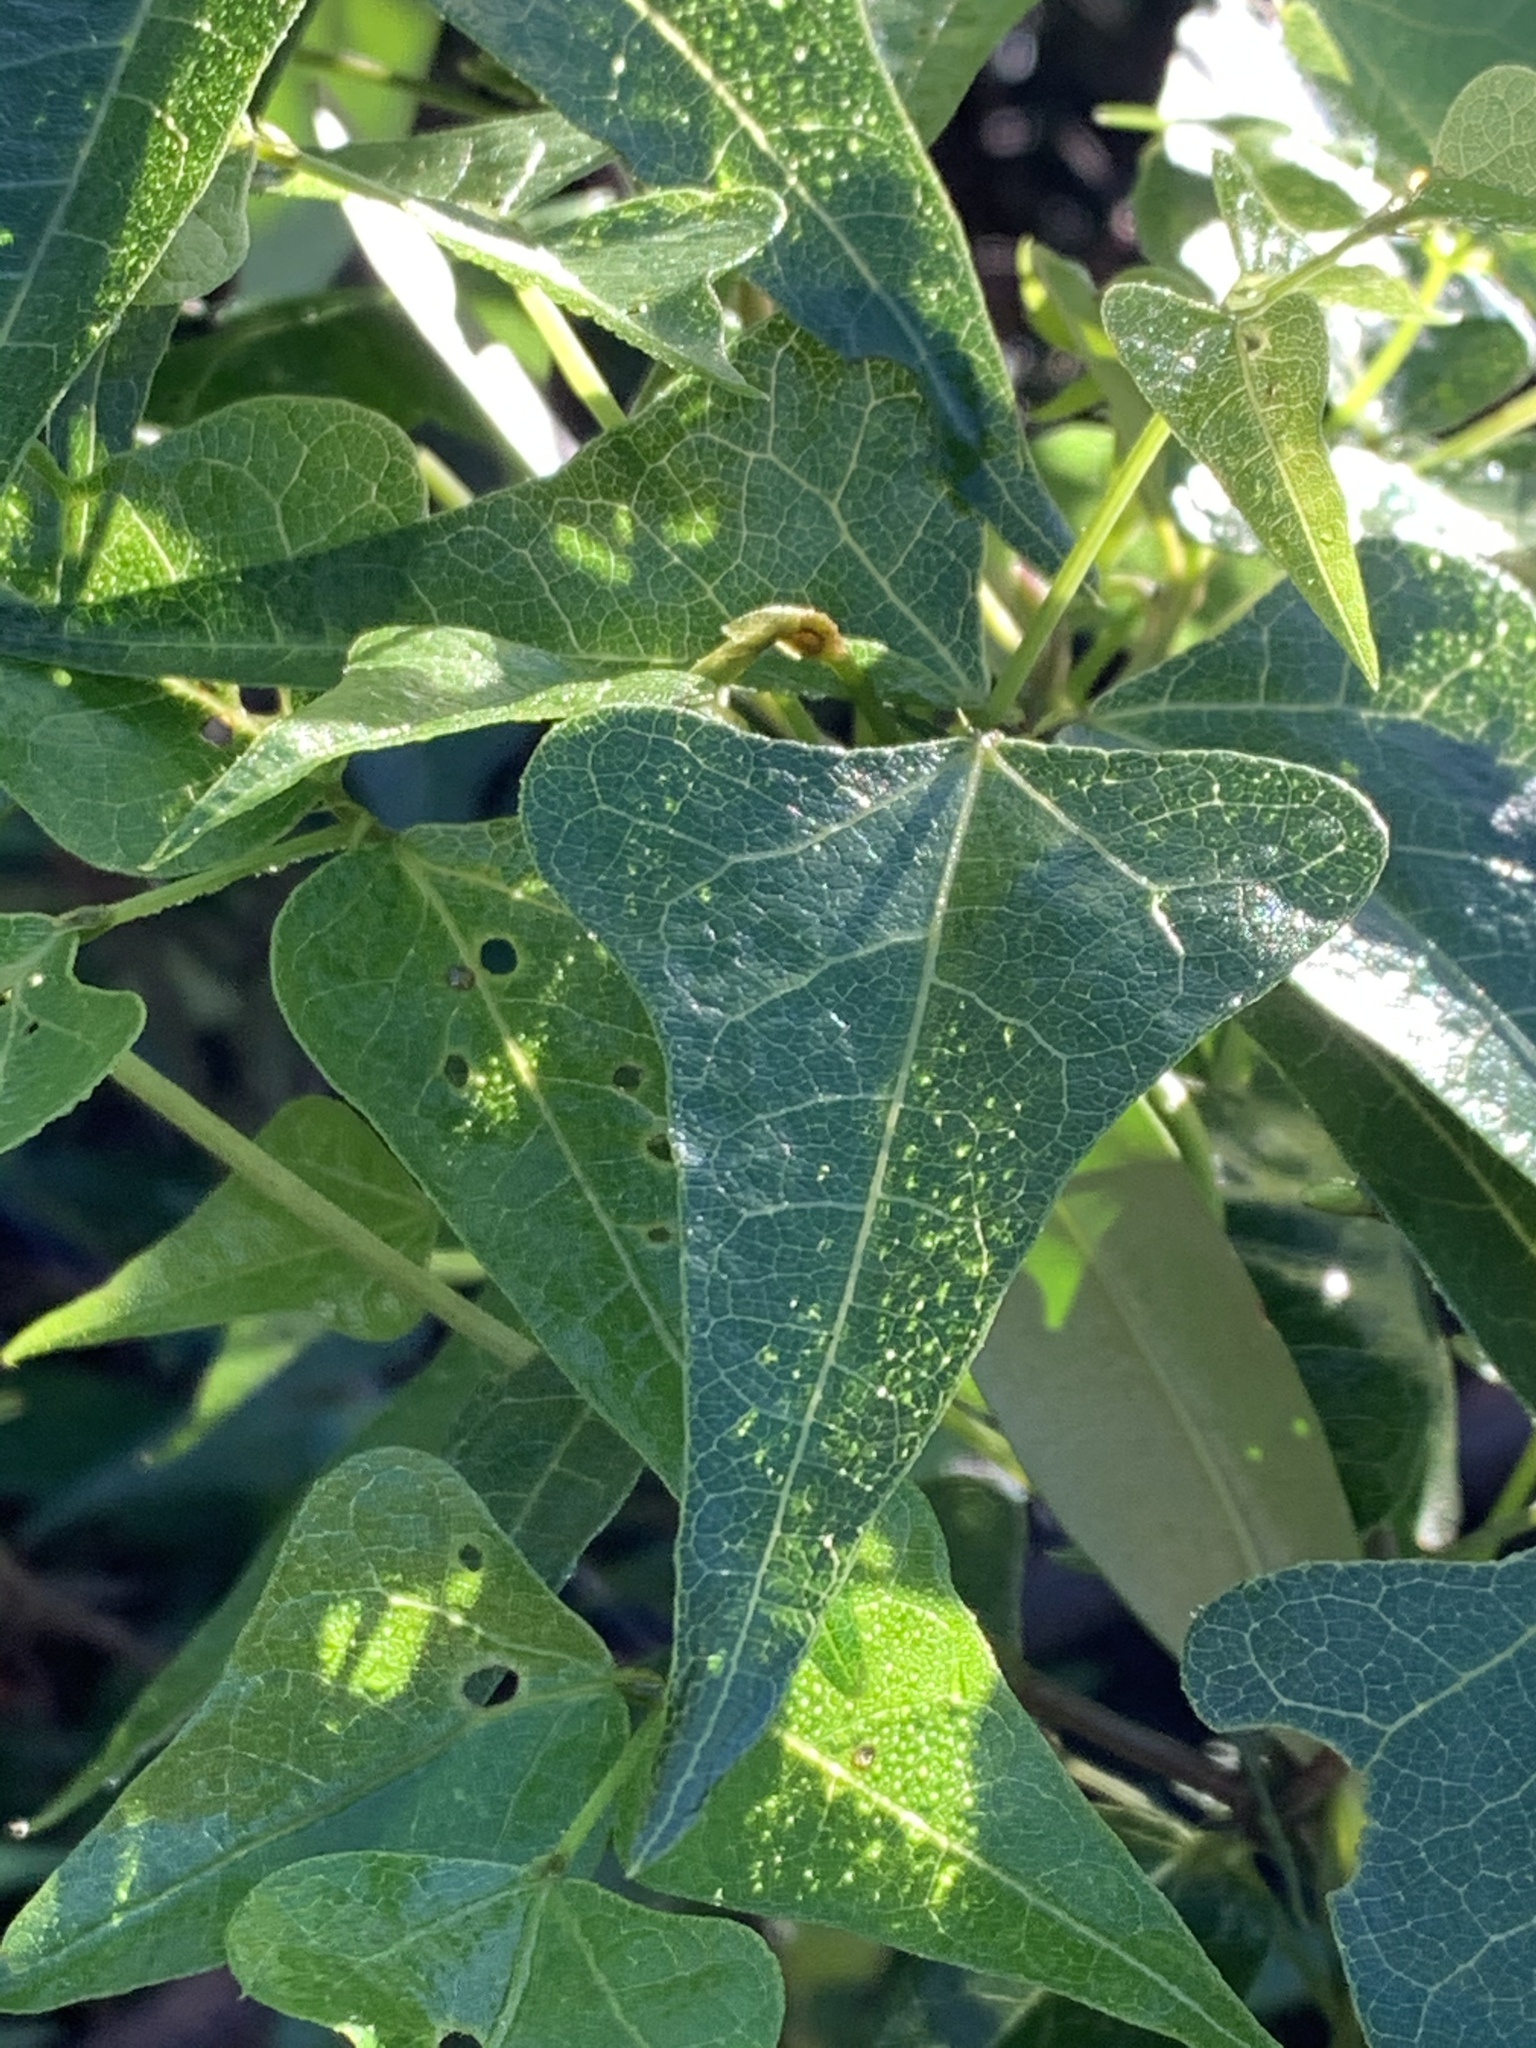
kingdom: Plantae
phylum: Tracheophyta
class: Magnoliopsida
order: Fabales
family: Fabaceae
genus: Dipogon
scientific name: Dipogon lignosus
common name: Okie bean
